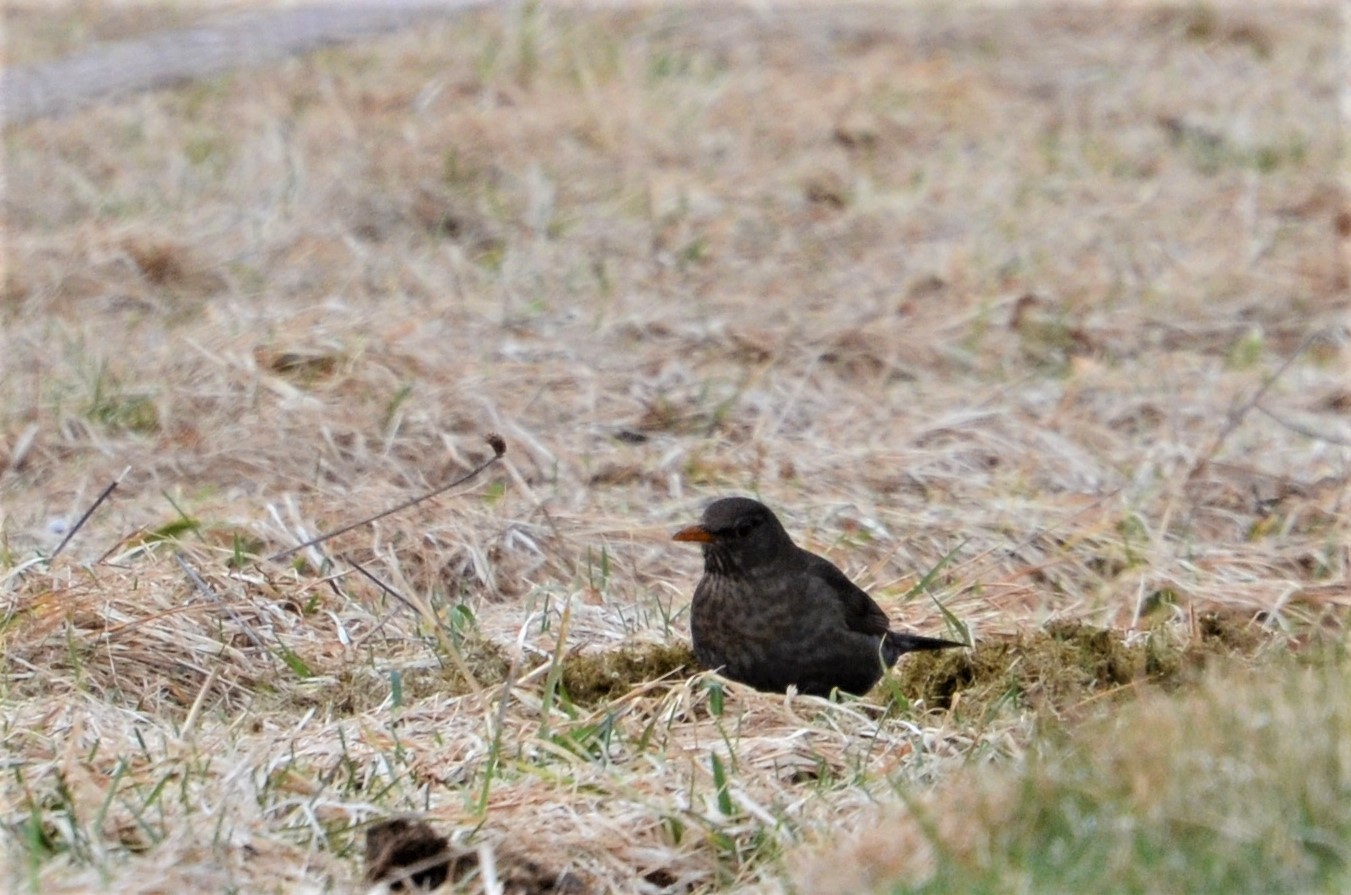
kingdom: Animalia
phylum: Chordata
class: Aves
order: Passeriformes
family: Turdidae
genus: Turdus
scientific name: Turdus merula
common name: Common blackbird
